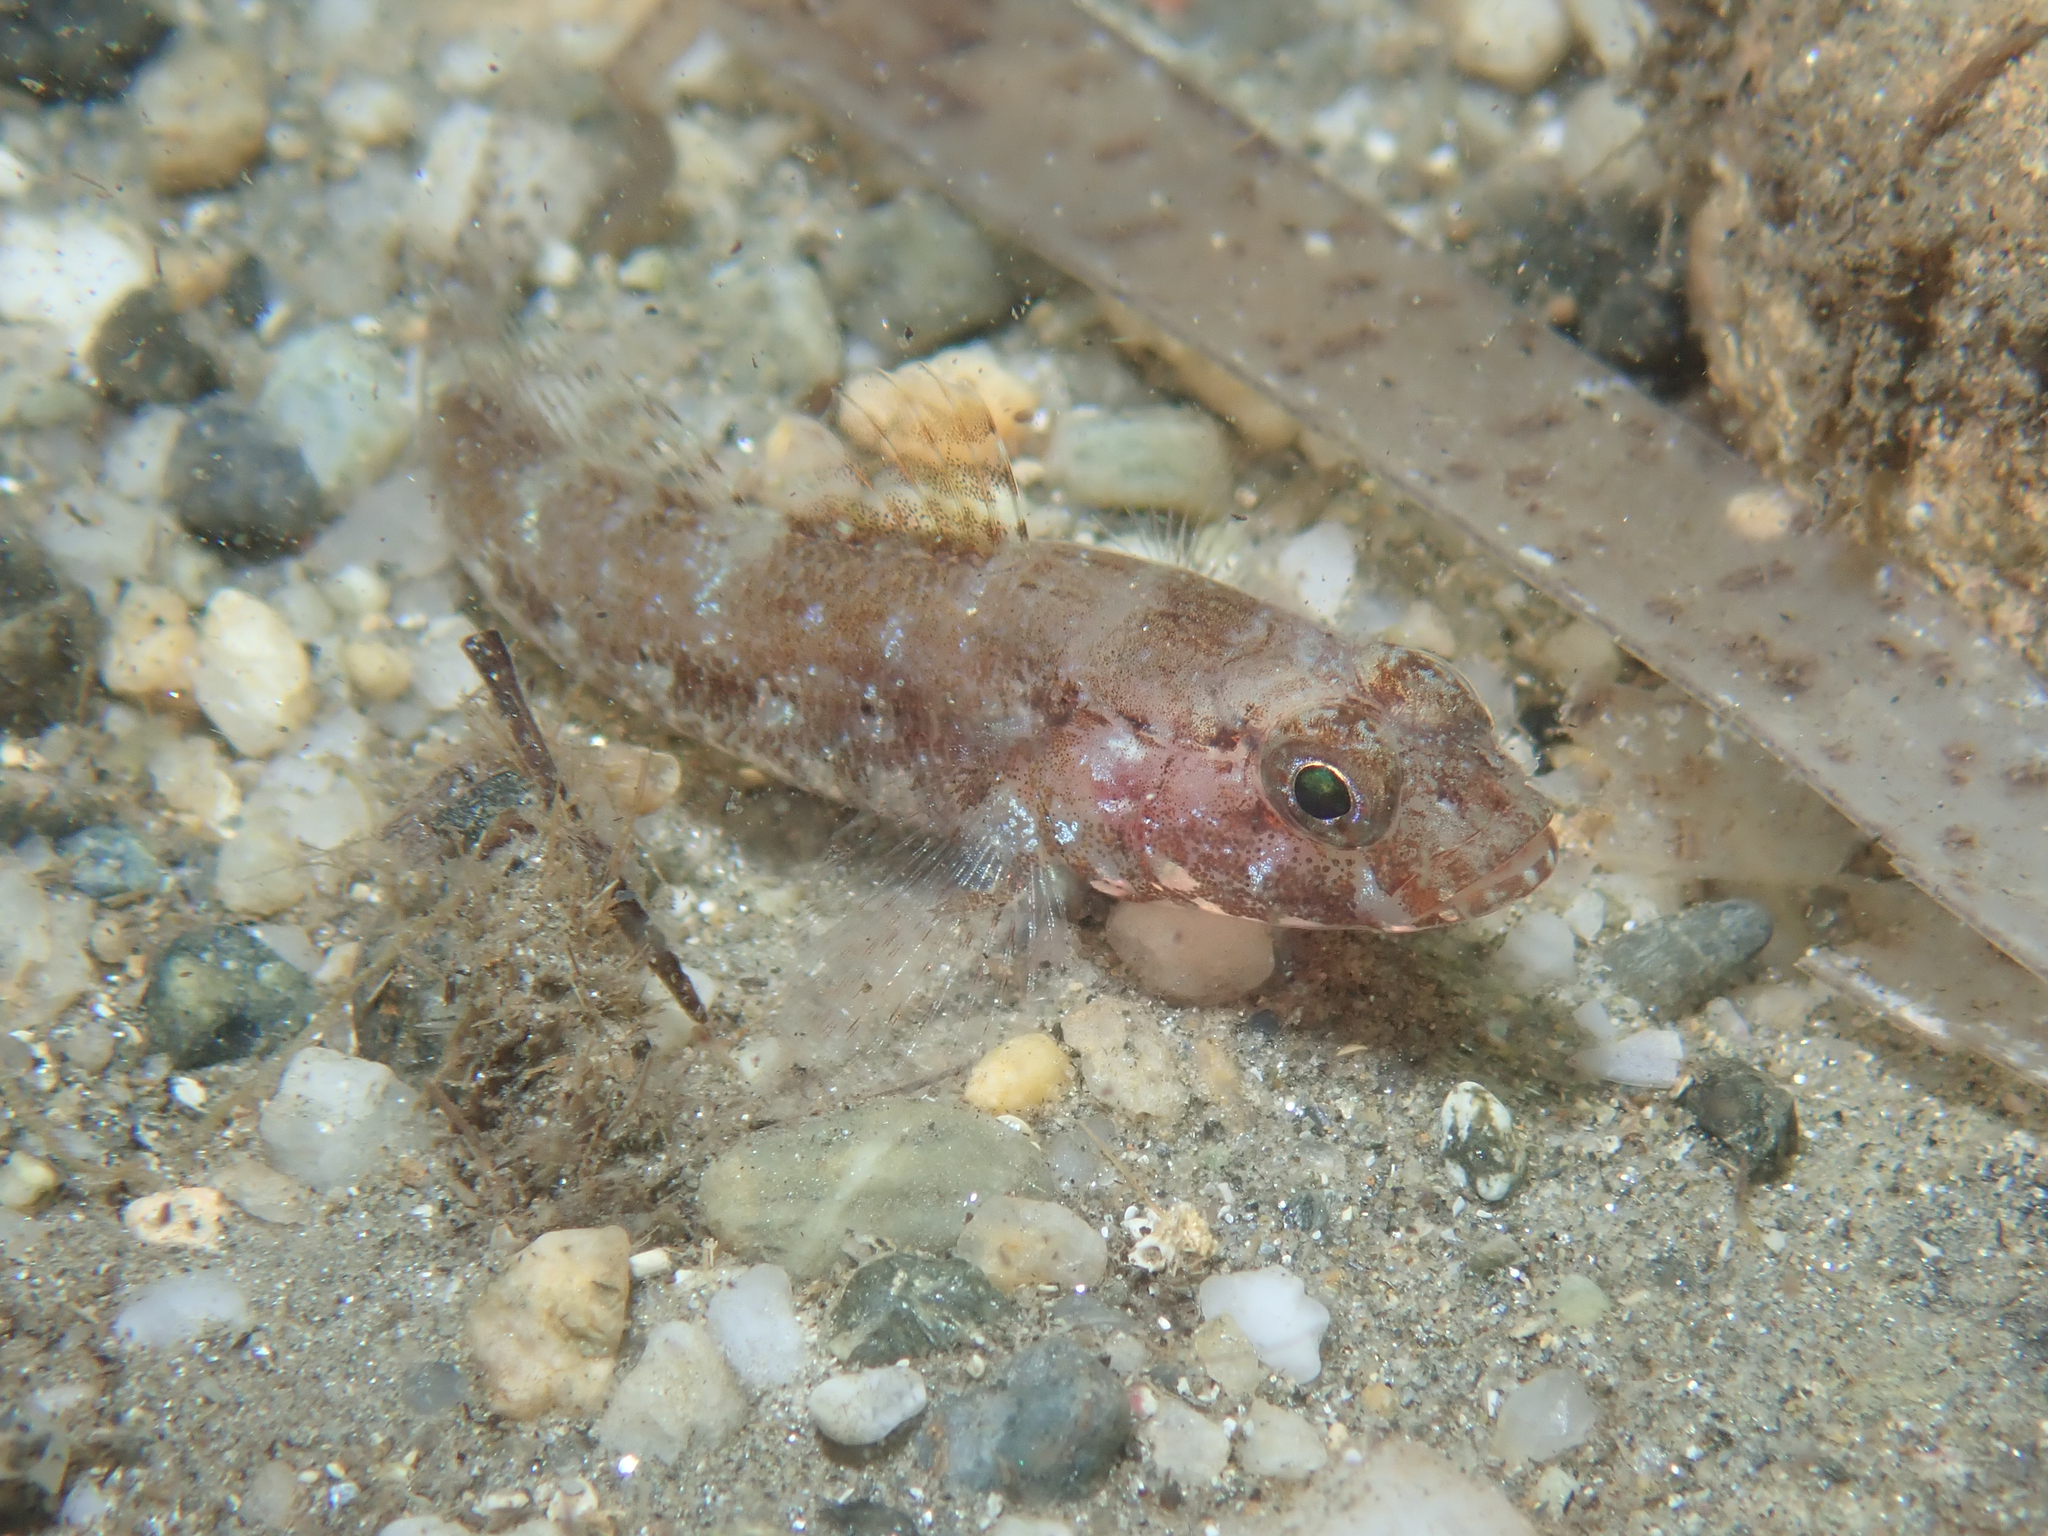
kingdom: Animalia
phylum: Chordata
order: Perciformes
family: Gobiidae
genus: Gobius
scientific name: Gobius cruentatus
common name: Red-mouthed goby
